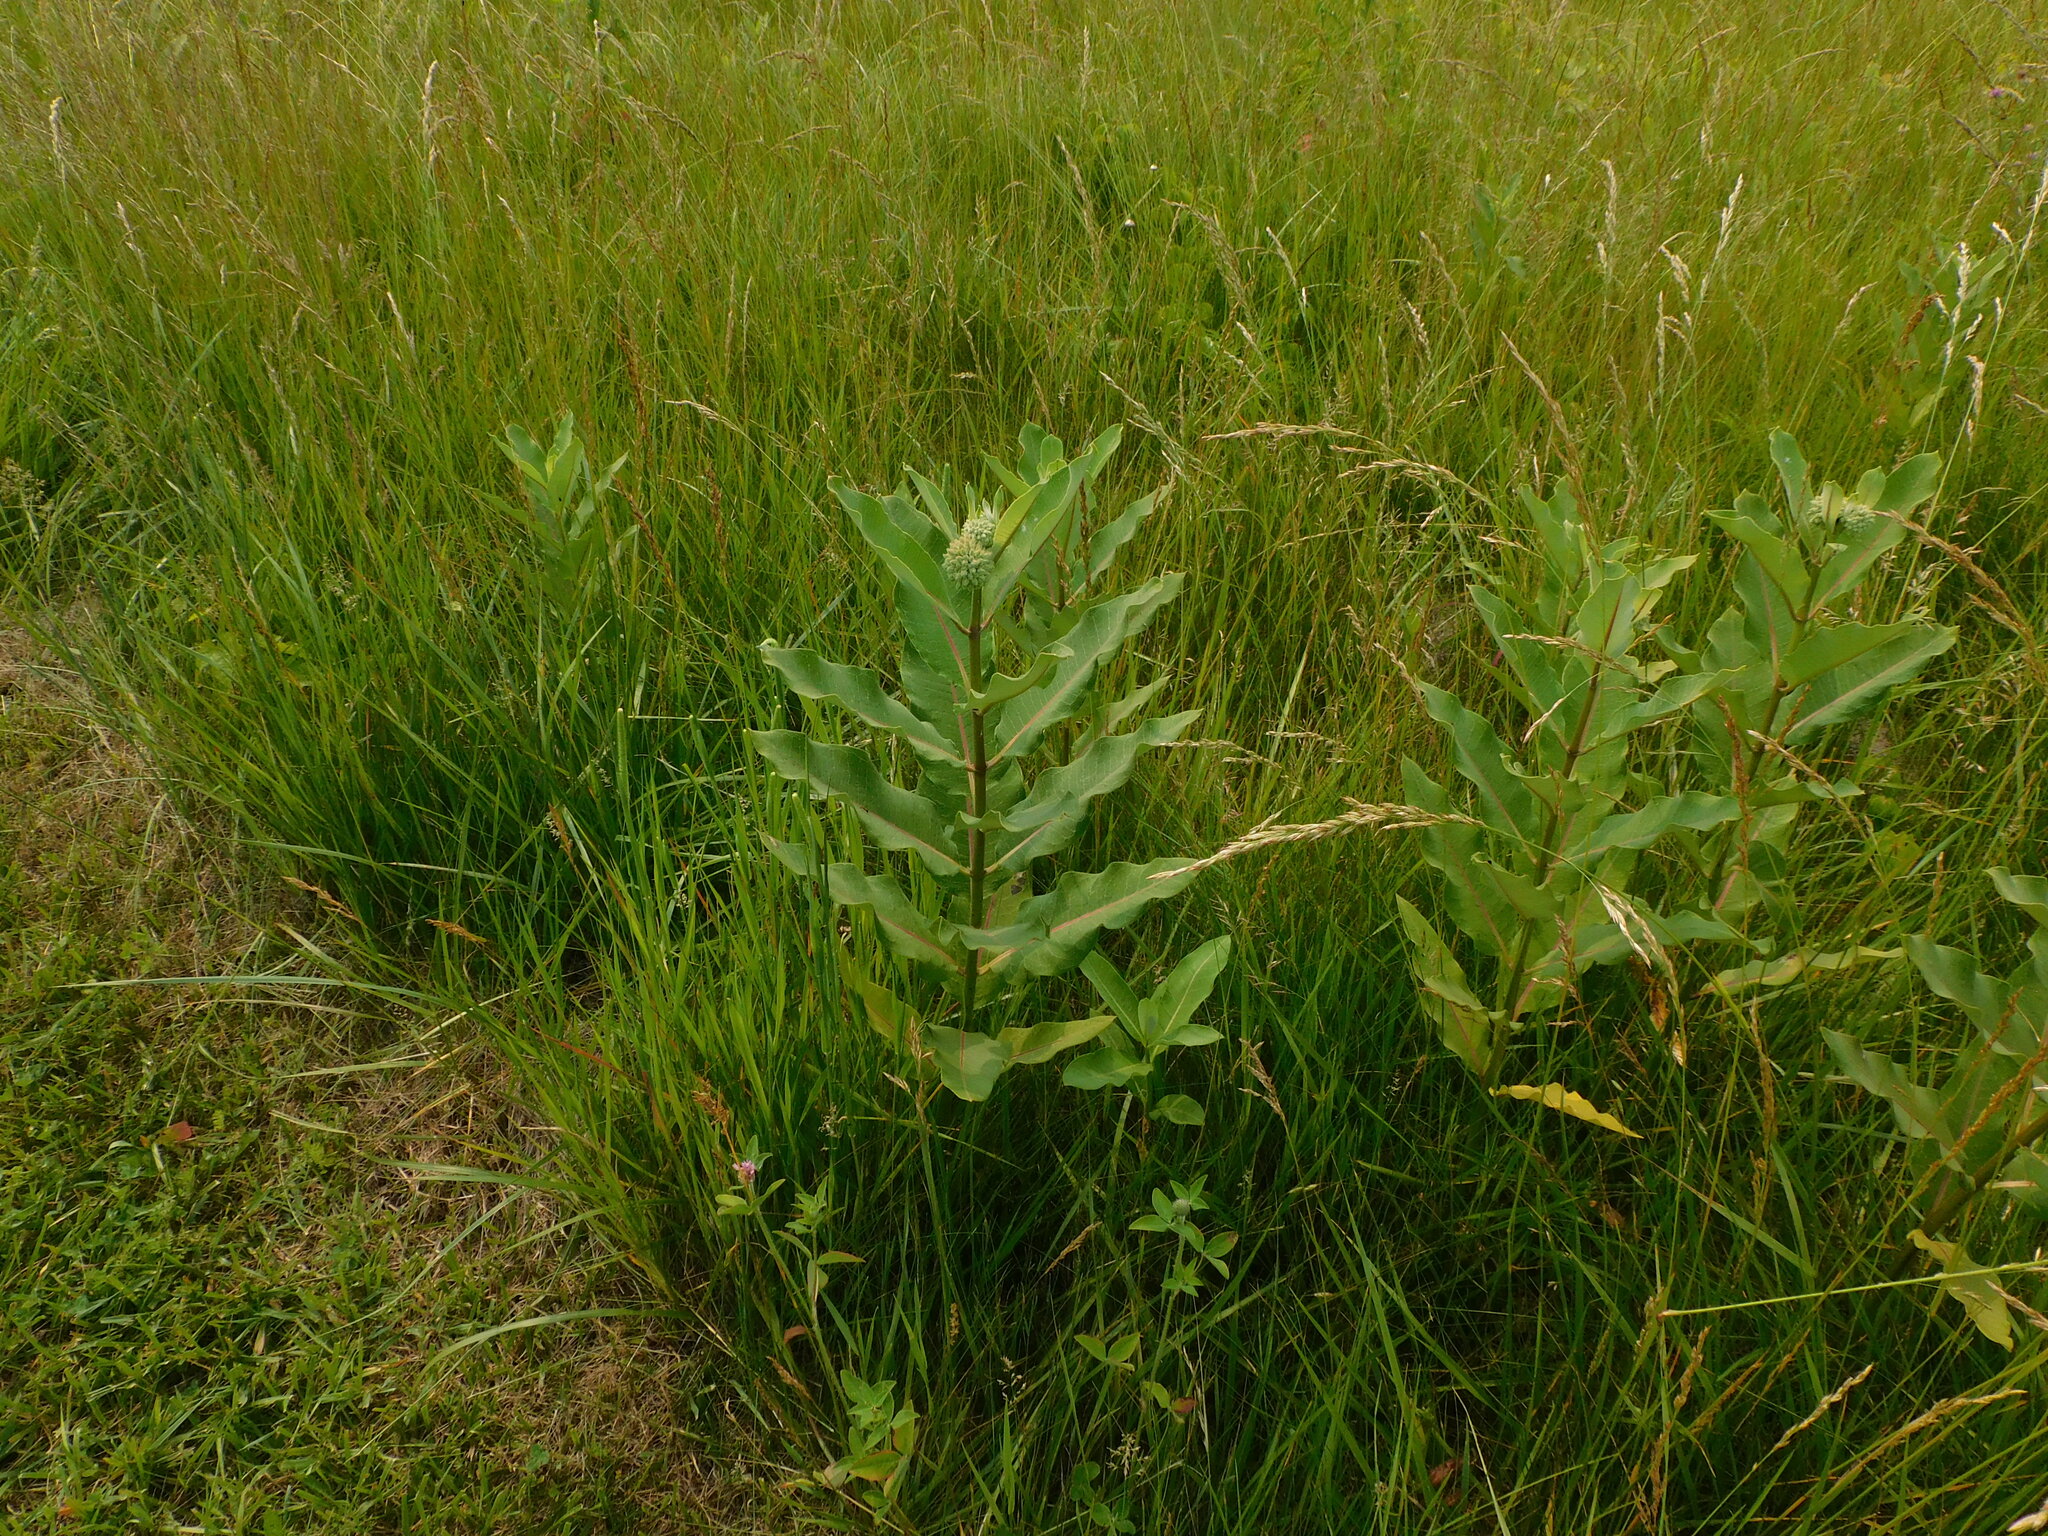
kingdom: Plantae
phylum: Tracheophyta
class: Magnoliopsida
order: Gentianales
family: Apocynaceae
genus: Asclepias
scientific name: Asclepias syriaca
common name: Common milkweed
